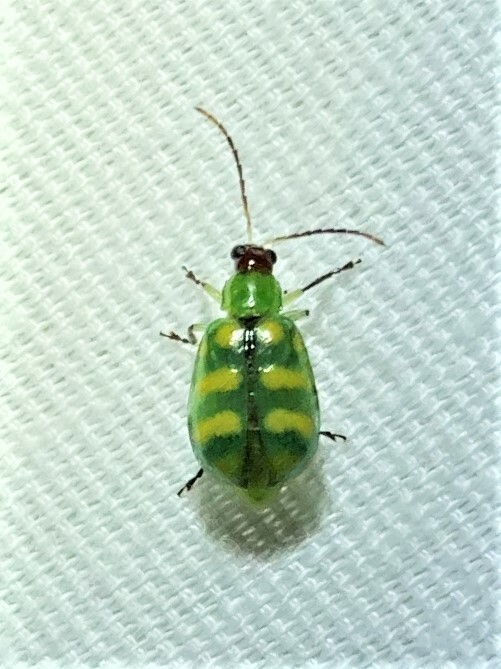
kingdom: Animalia
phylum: Arthropoda
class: Insecta
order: Coleoptera
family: Chrysomelidae
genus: Diabrotica
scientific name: Diabrotica balteata
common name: Leaf beetle
